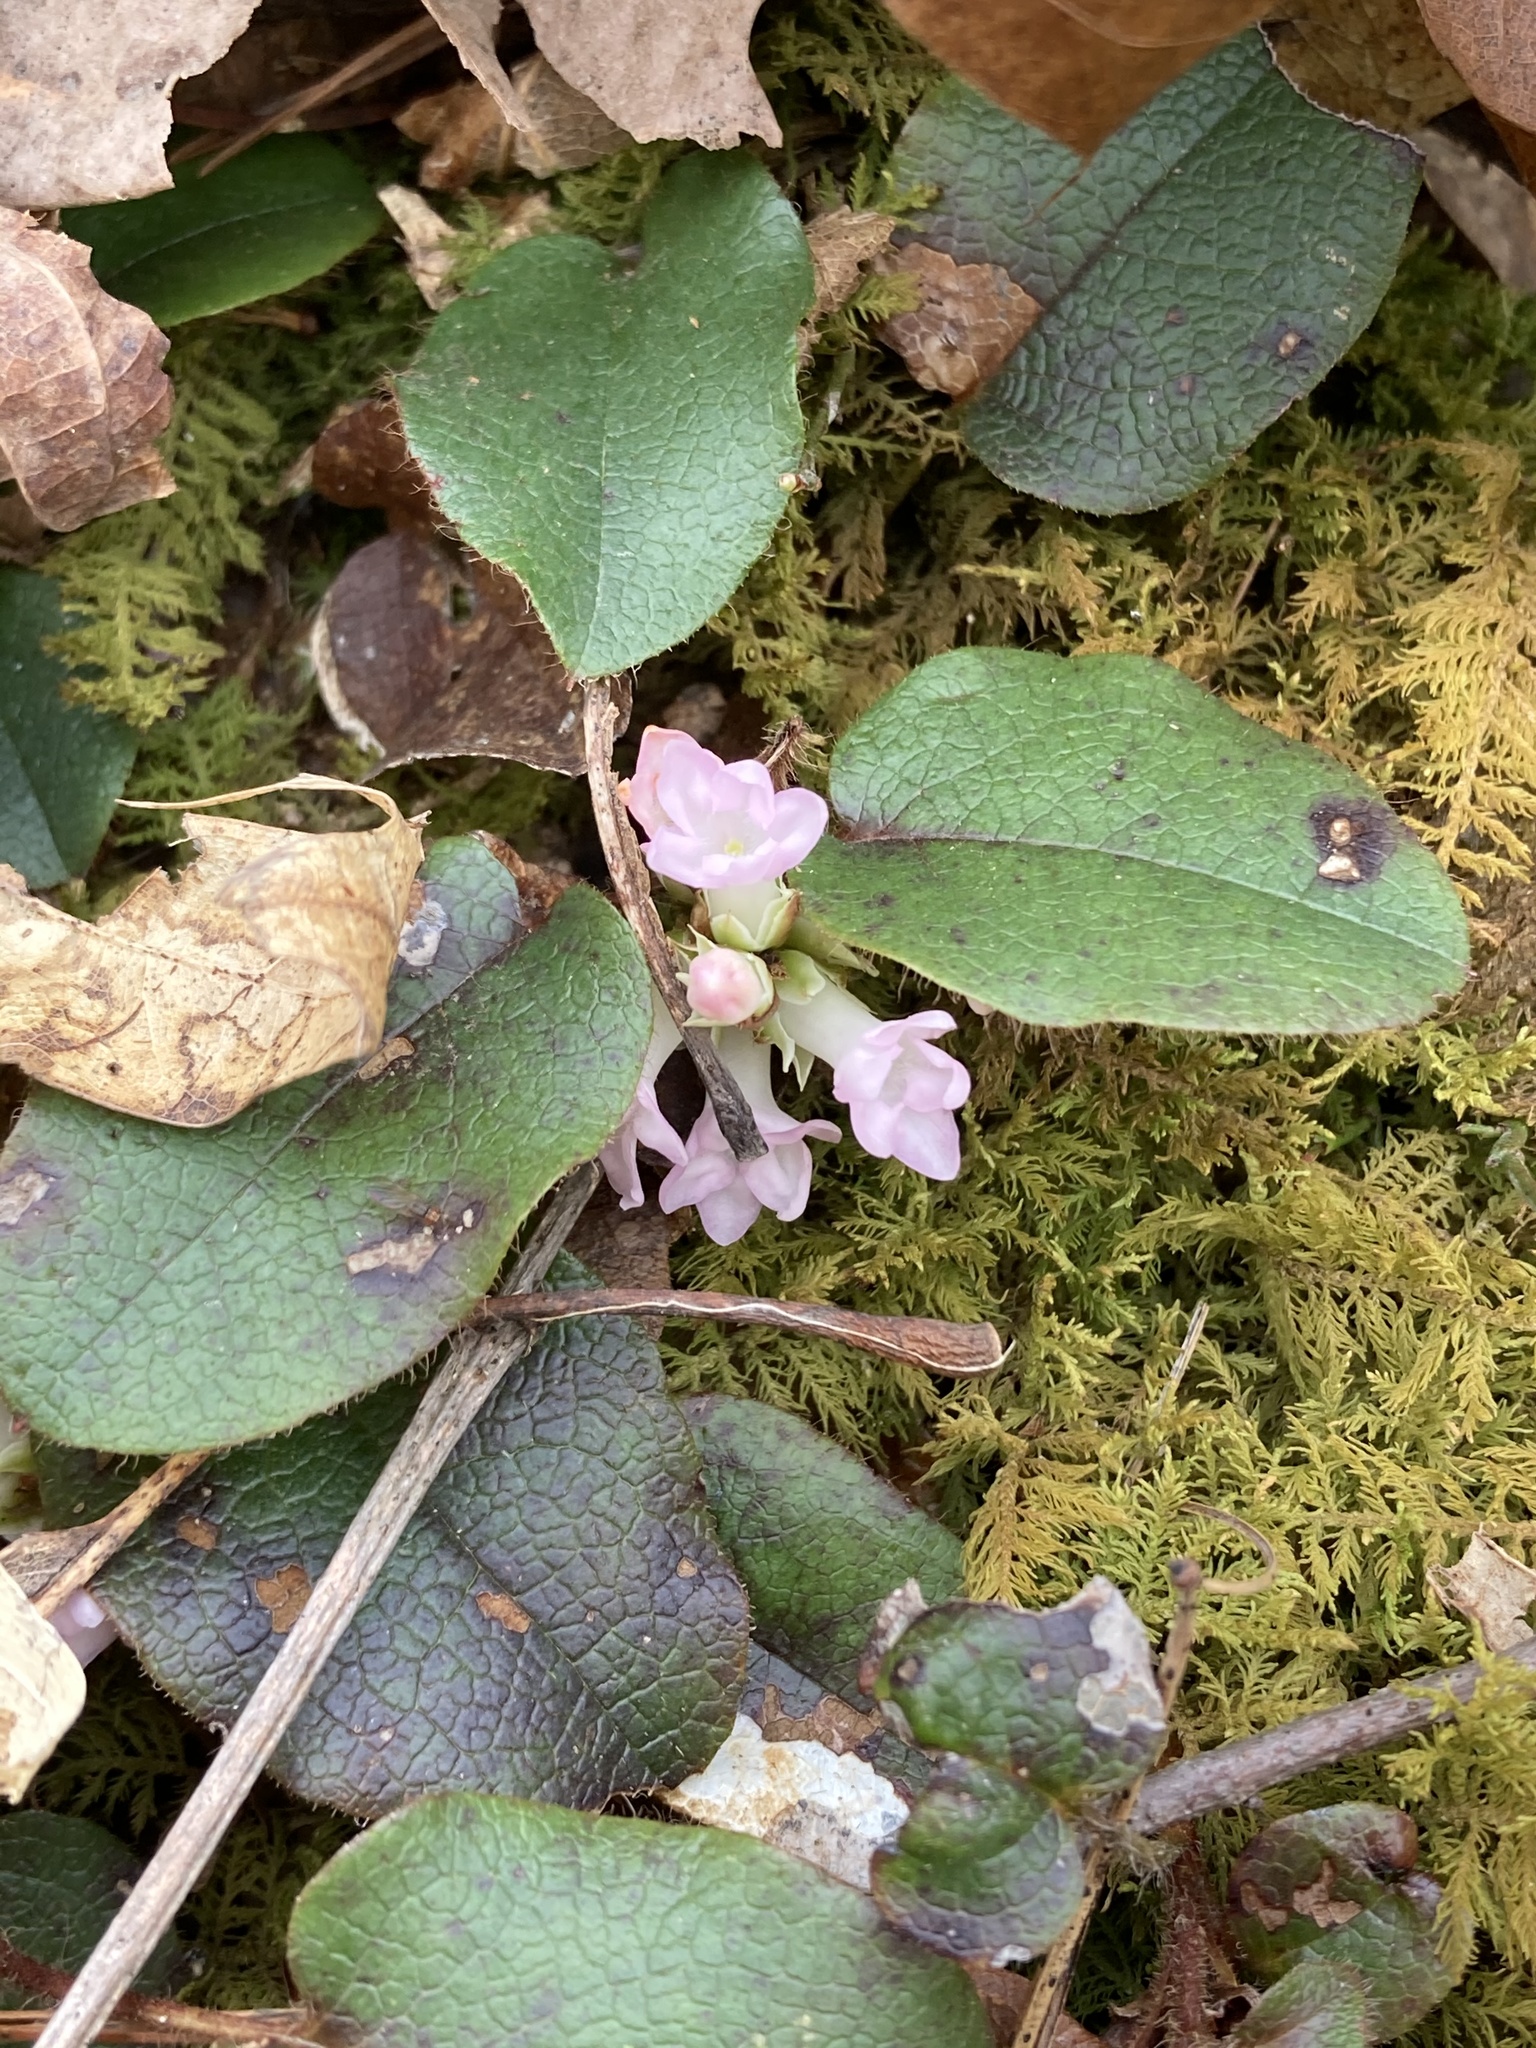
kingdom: Plantae
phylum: Tracheophyta
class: Magnoliopsida
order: Ericales
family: Ericaceae
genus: Epigaea
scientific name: Epigaea repens
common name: Gravelroot
